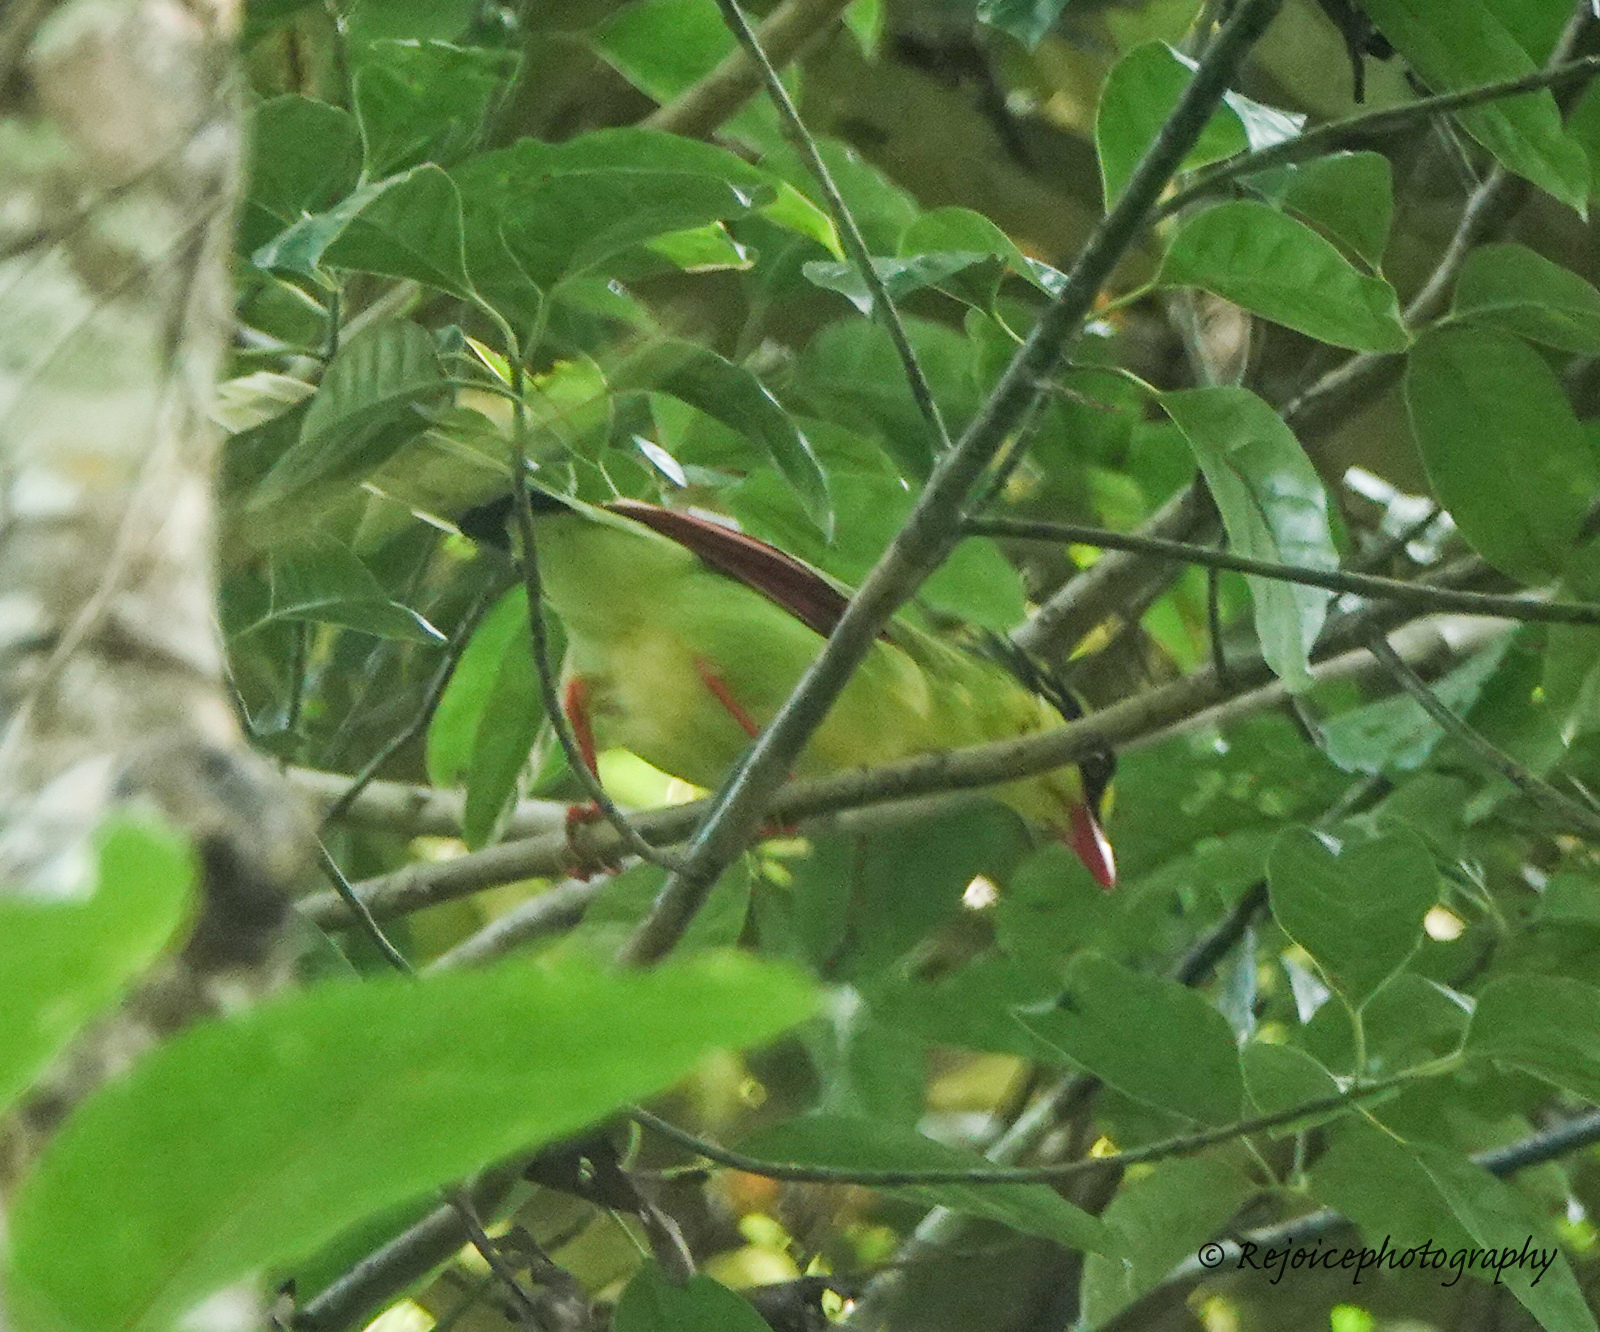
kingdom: Animalia
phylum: Chordata
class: Aves
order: Passeriformes
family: Corvidae
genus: Cissa
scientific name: Cissa chinensis
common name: Common green magpie
